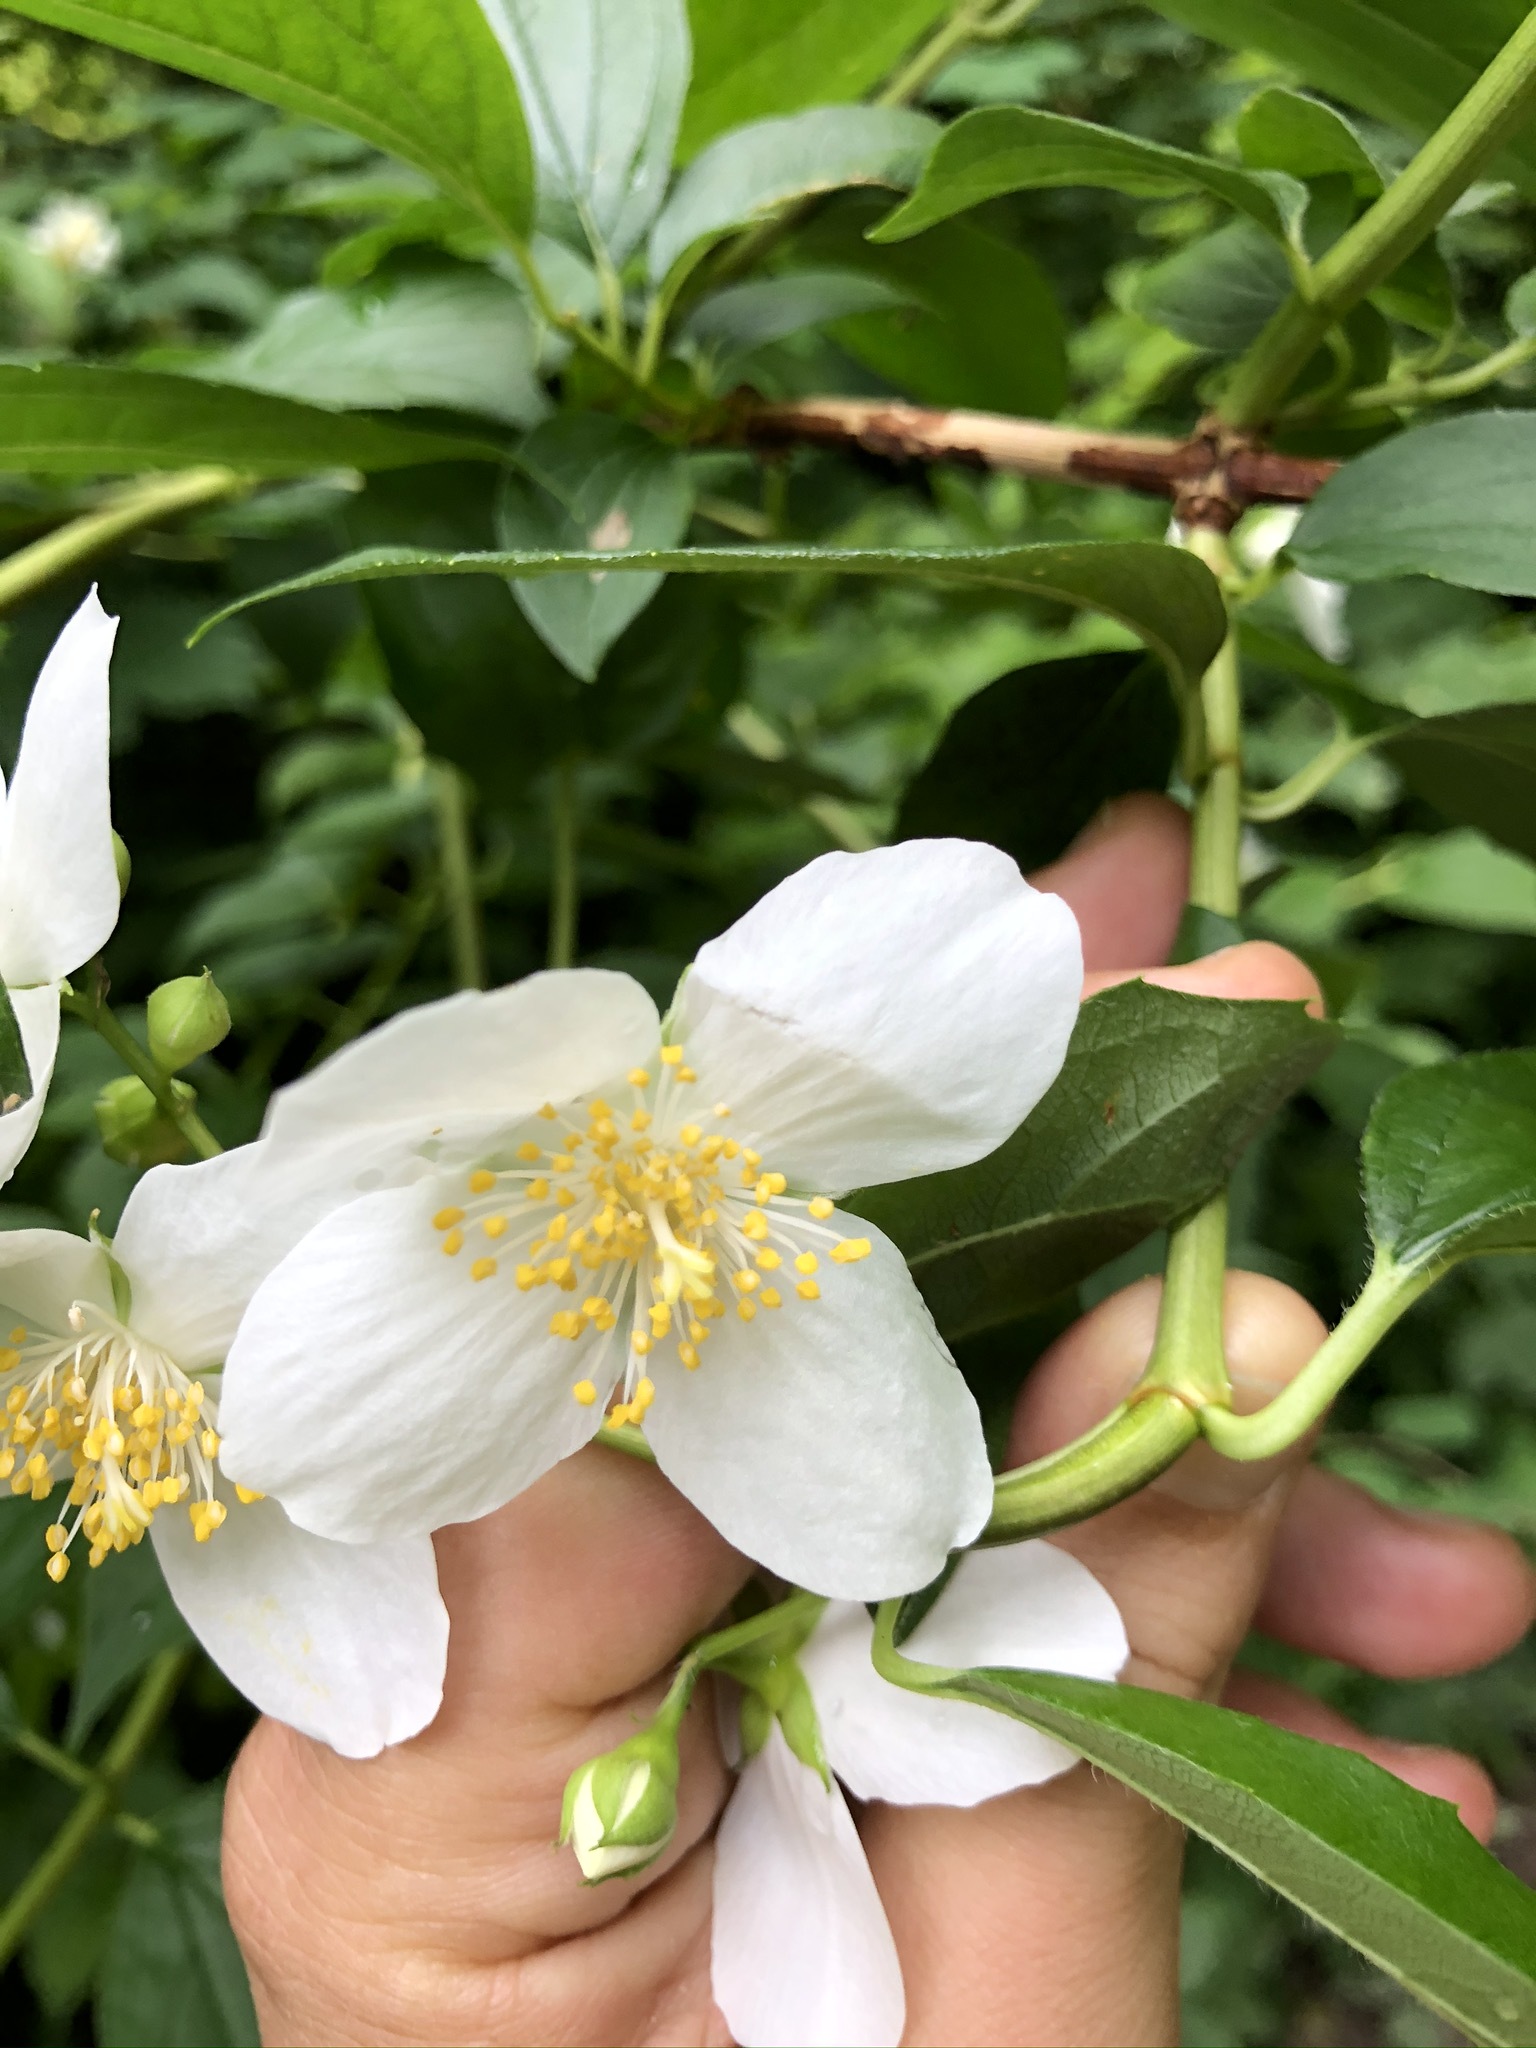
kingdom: Plantae
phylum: Tracheophyta
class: Magnoliopsida
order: Cornales
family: Hydrangeaceae
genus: Philadelphus
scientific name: Philadelphus coronarius
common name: Mock orange
